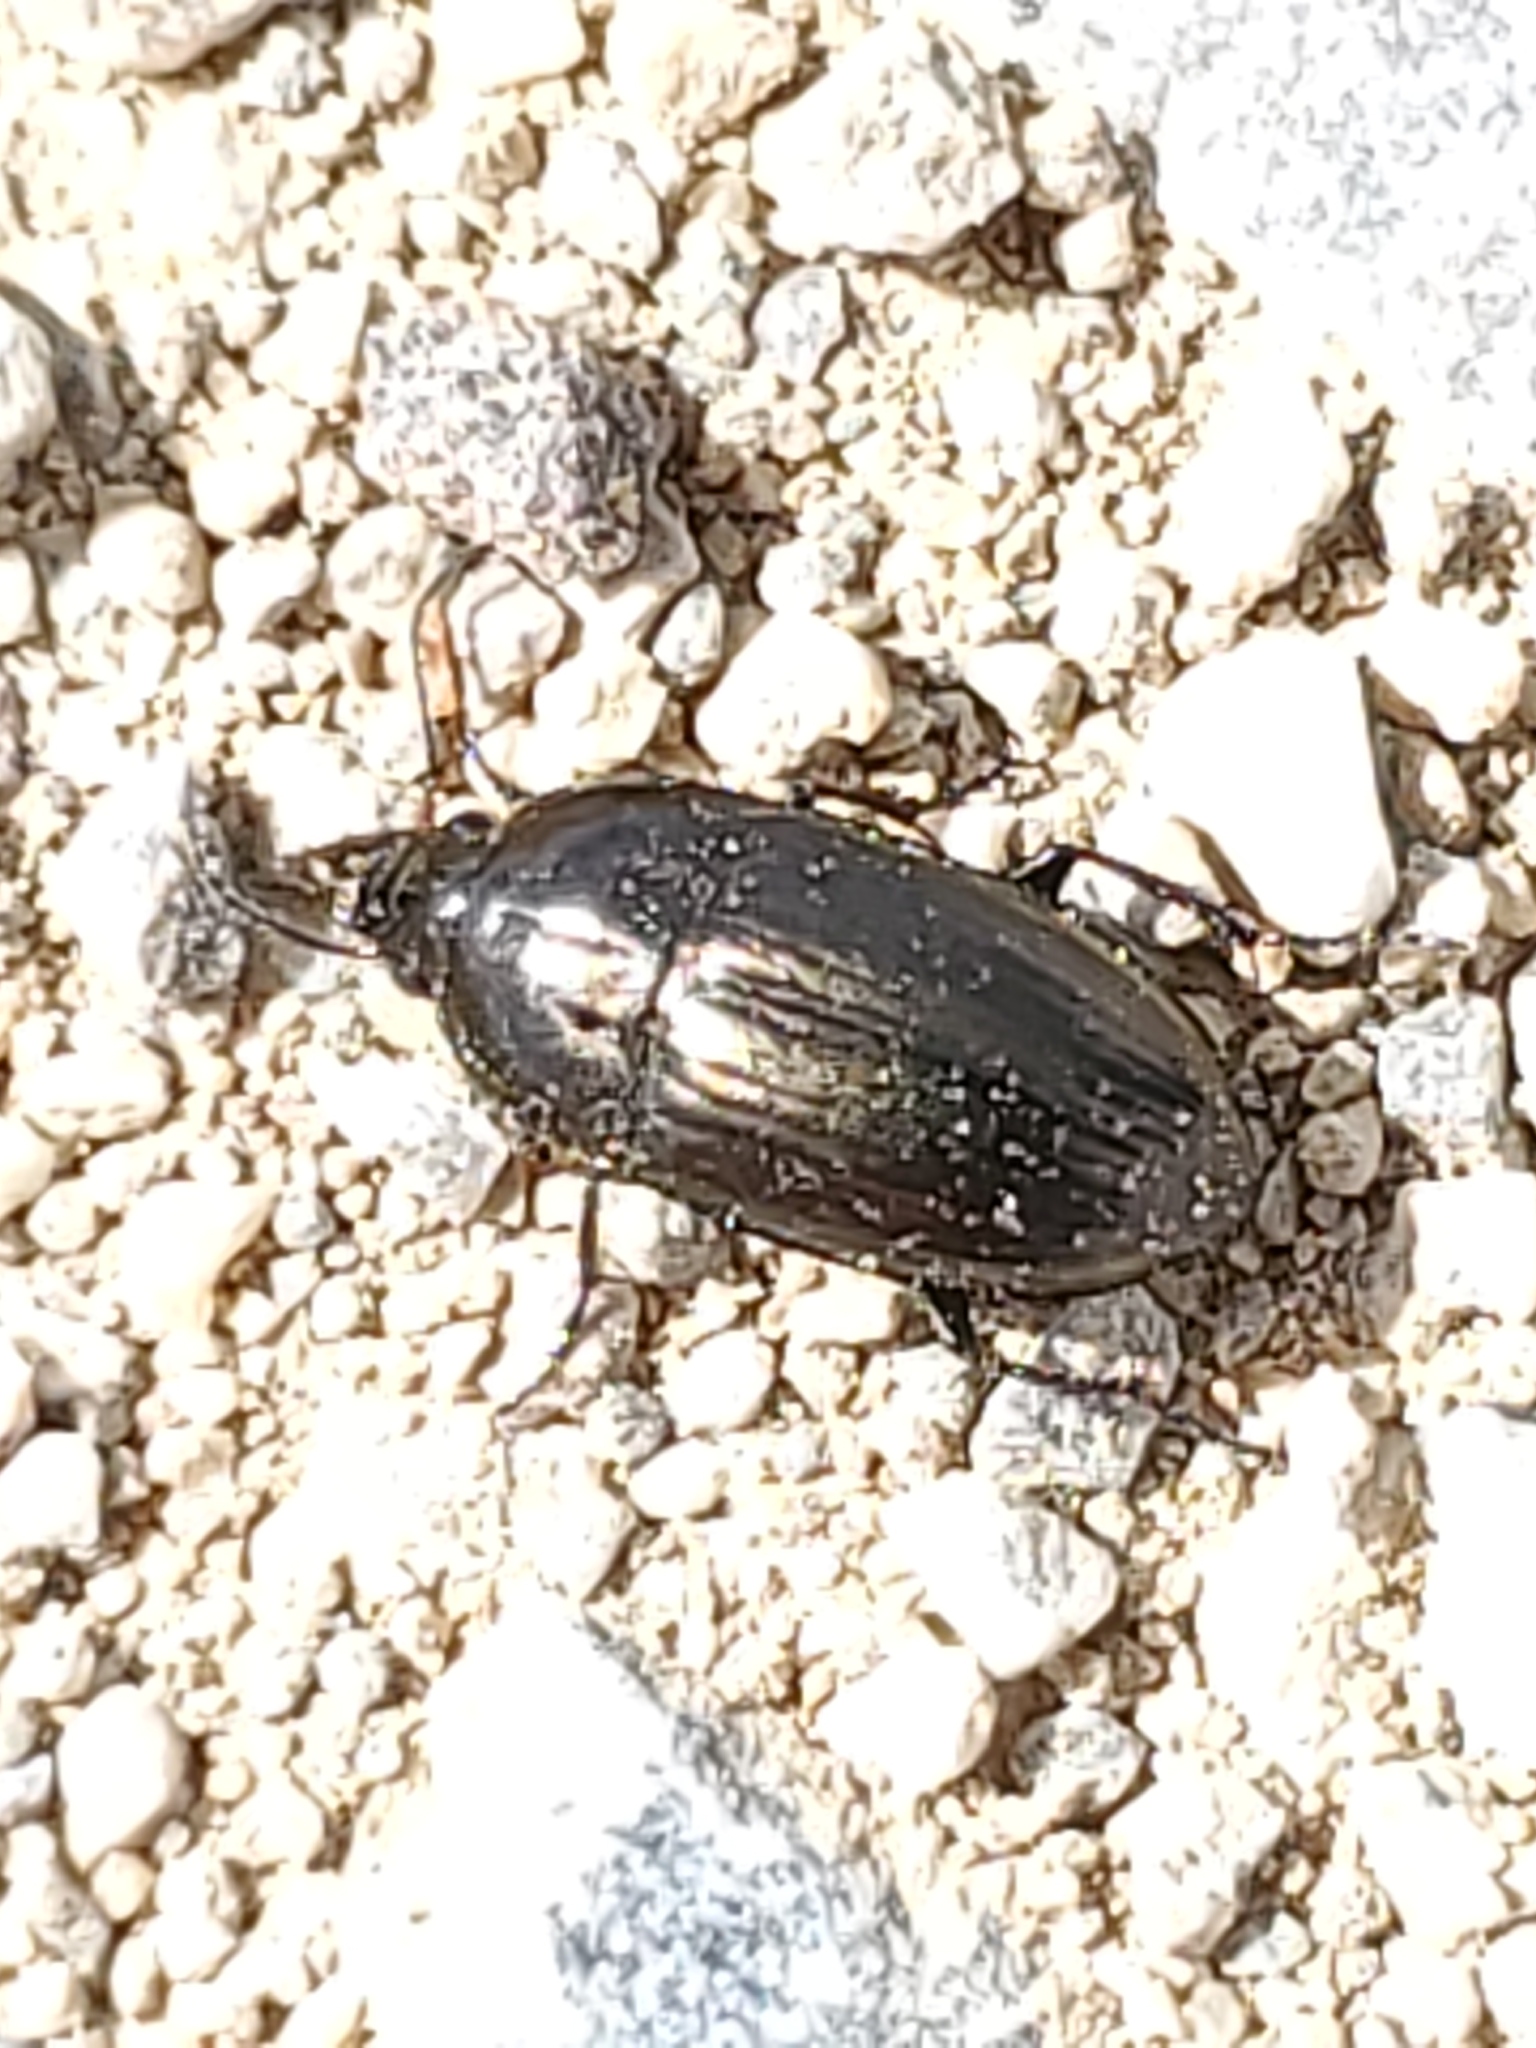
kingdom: Animalia
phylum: Arthropoda
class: Insecta
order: Coleoptera
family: Carabidae
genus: Amara
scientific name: Amara
